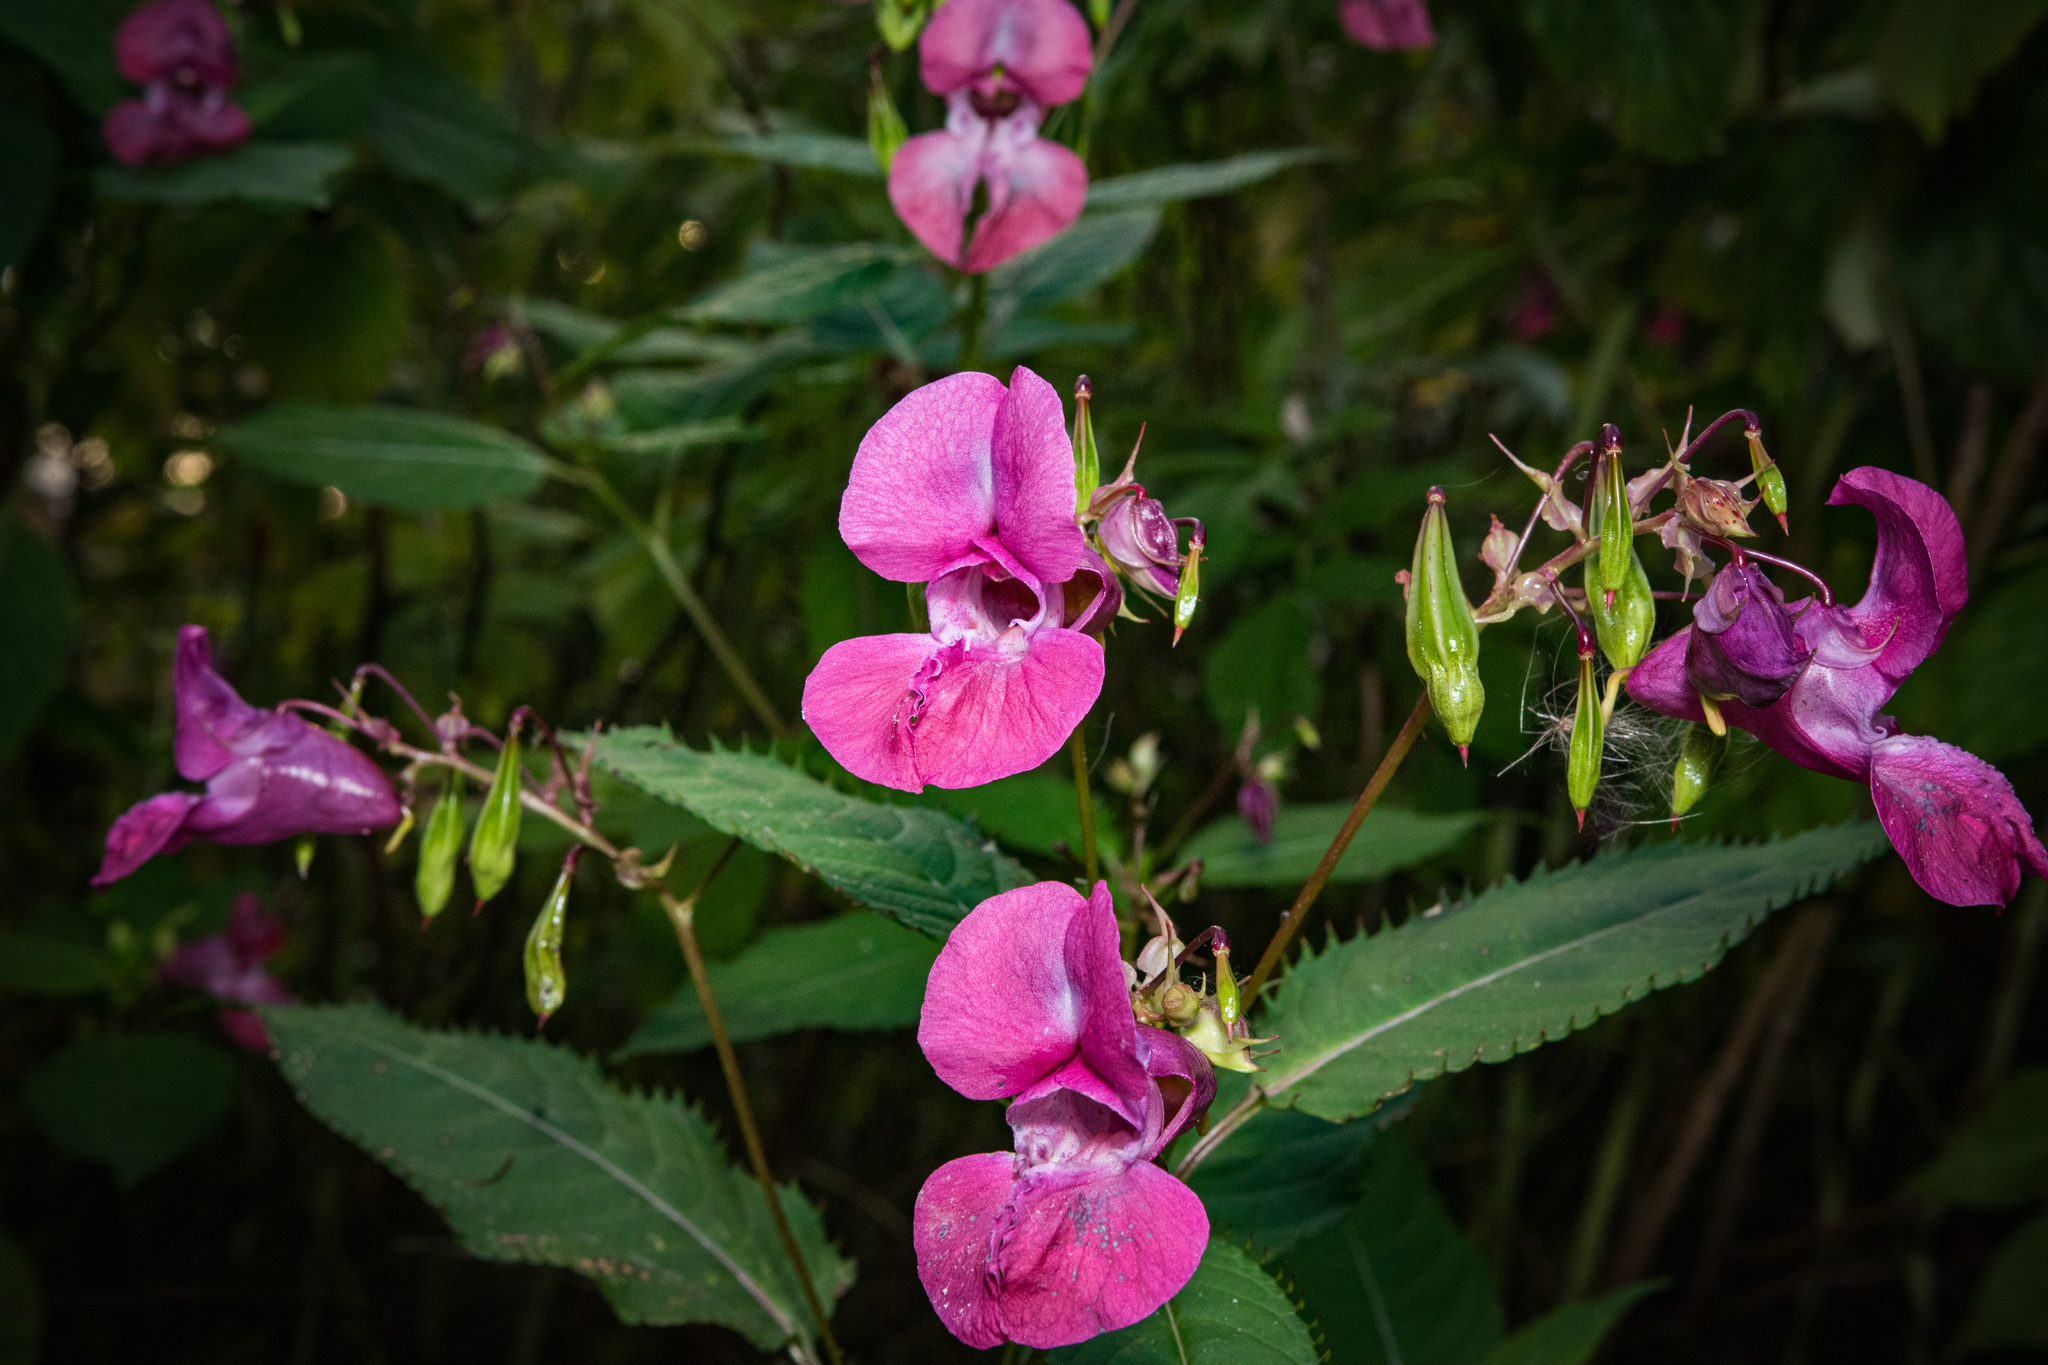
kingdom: Plantae
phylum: Tracheophyta
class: Magnoliopsida
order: Ericales
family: Balsaminaceae
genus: Impatiens
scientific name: Impatiens glandulifera
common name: Himalayan balsam
